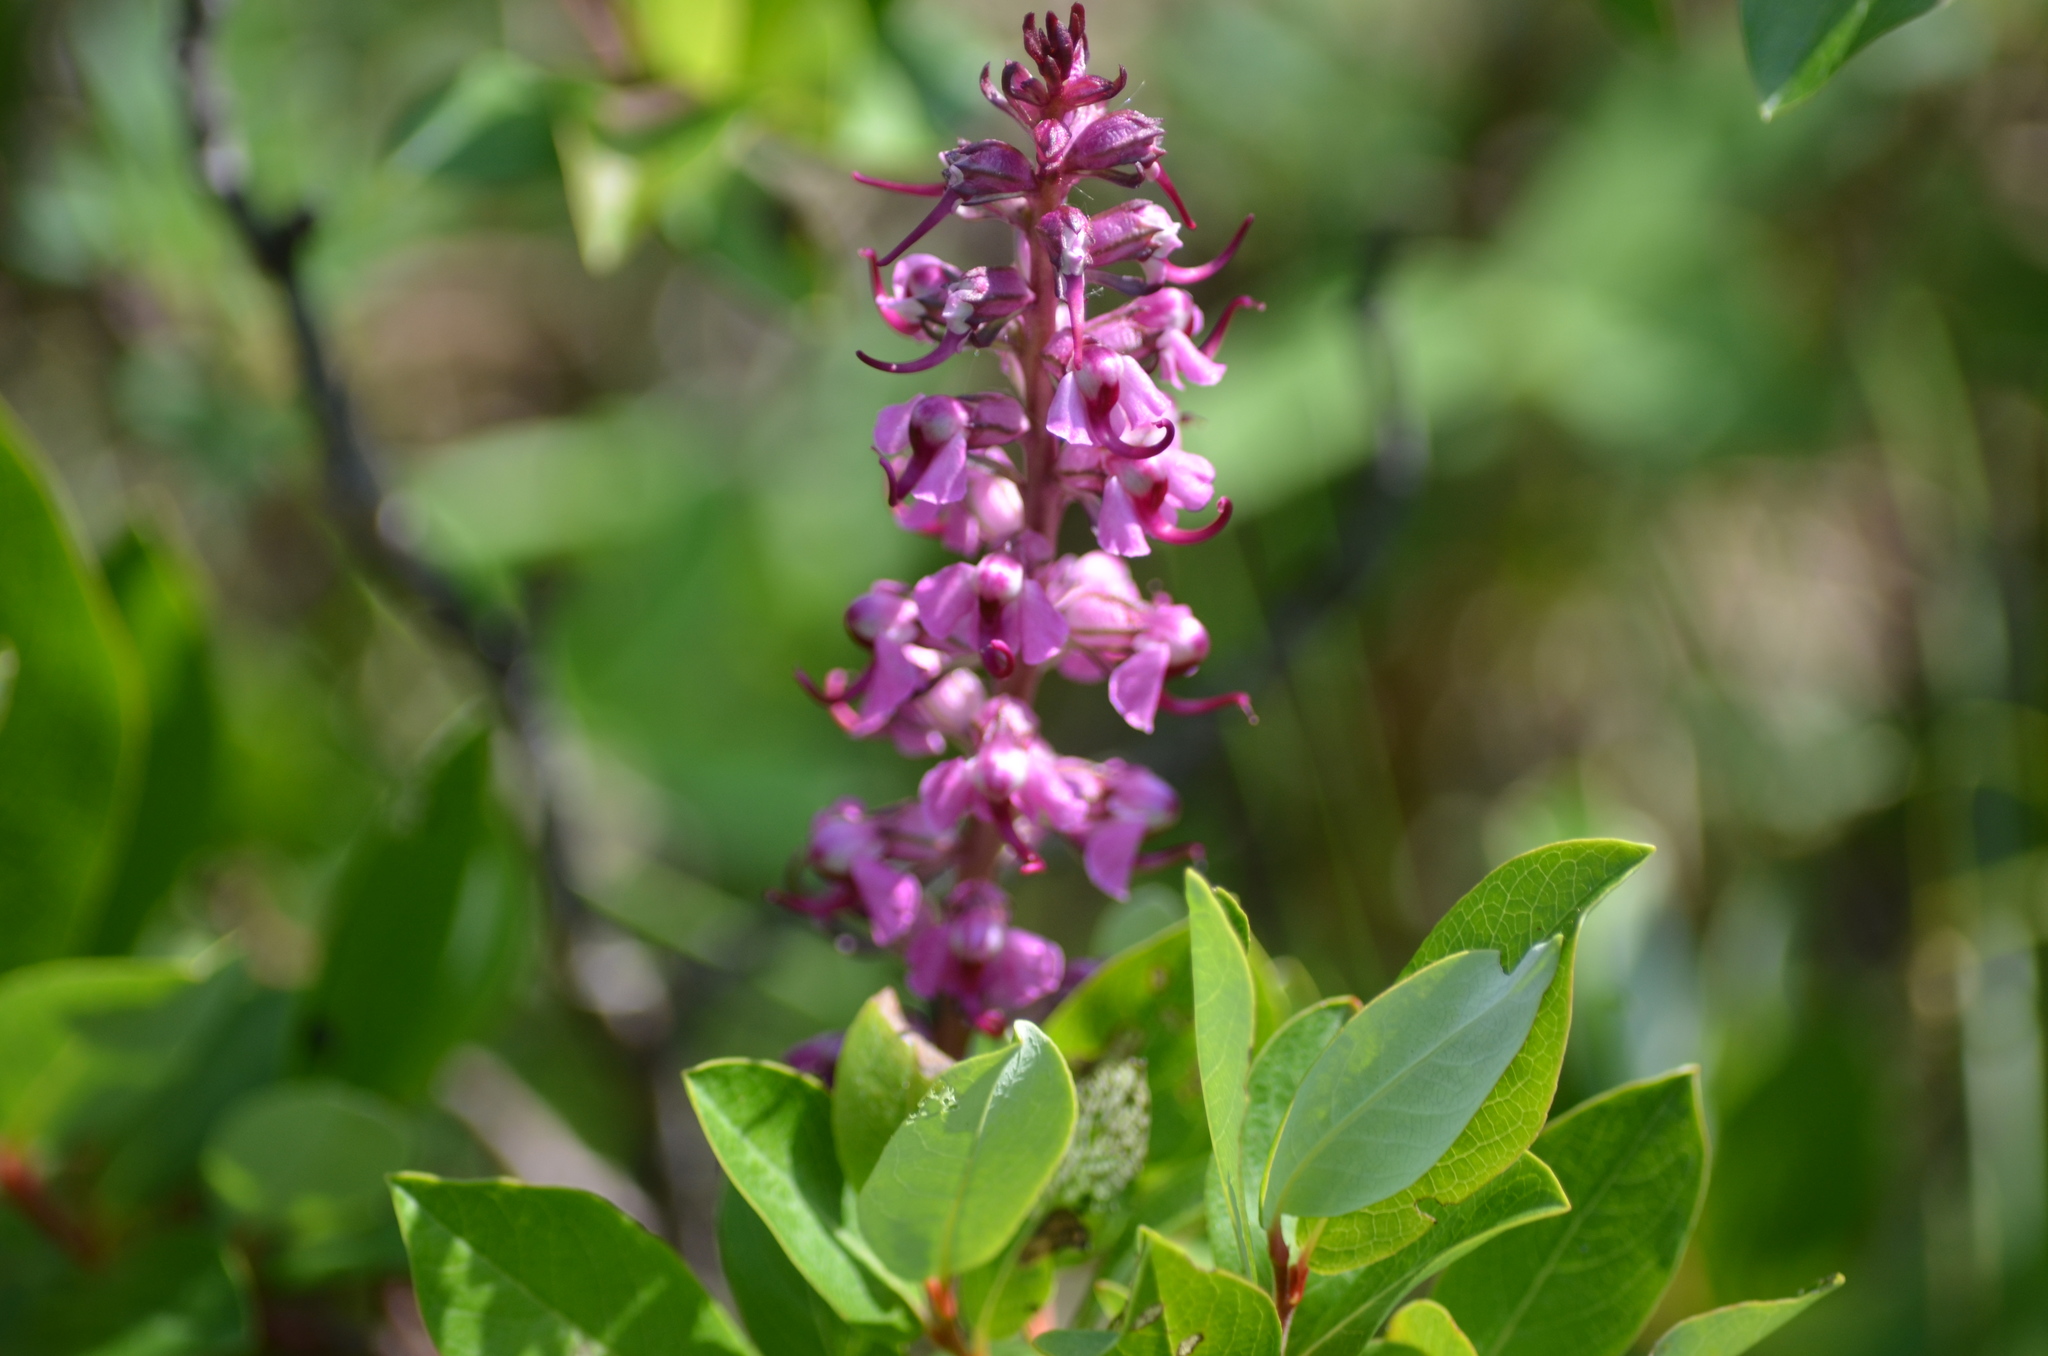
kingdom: Plantae
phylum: Tracheophyta
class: Magnoliopsida
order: Lamiales
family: Orobanchaceae
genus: Pedicularis
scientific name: Pedicularis groenlandica
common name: Elephant's-head
